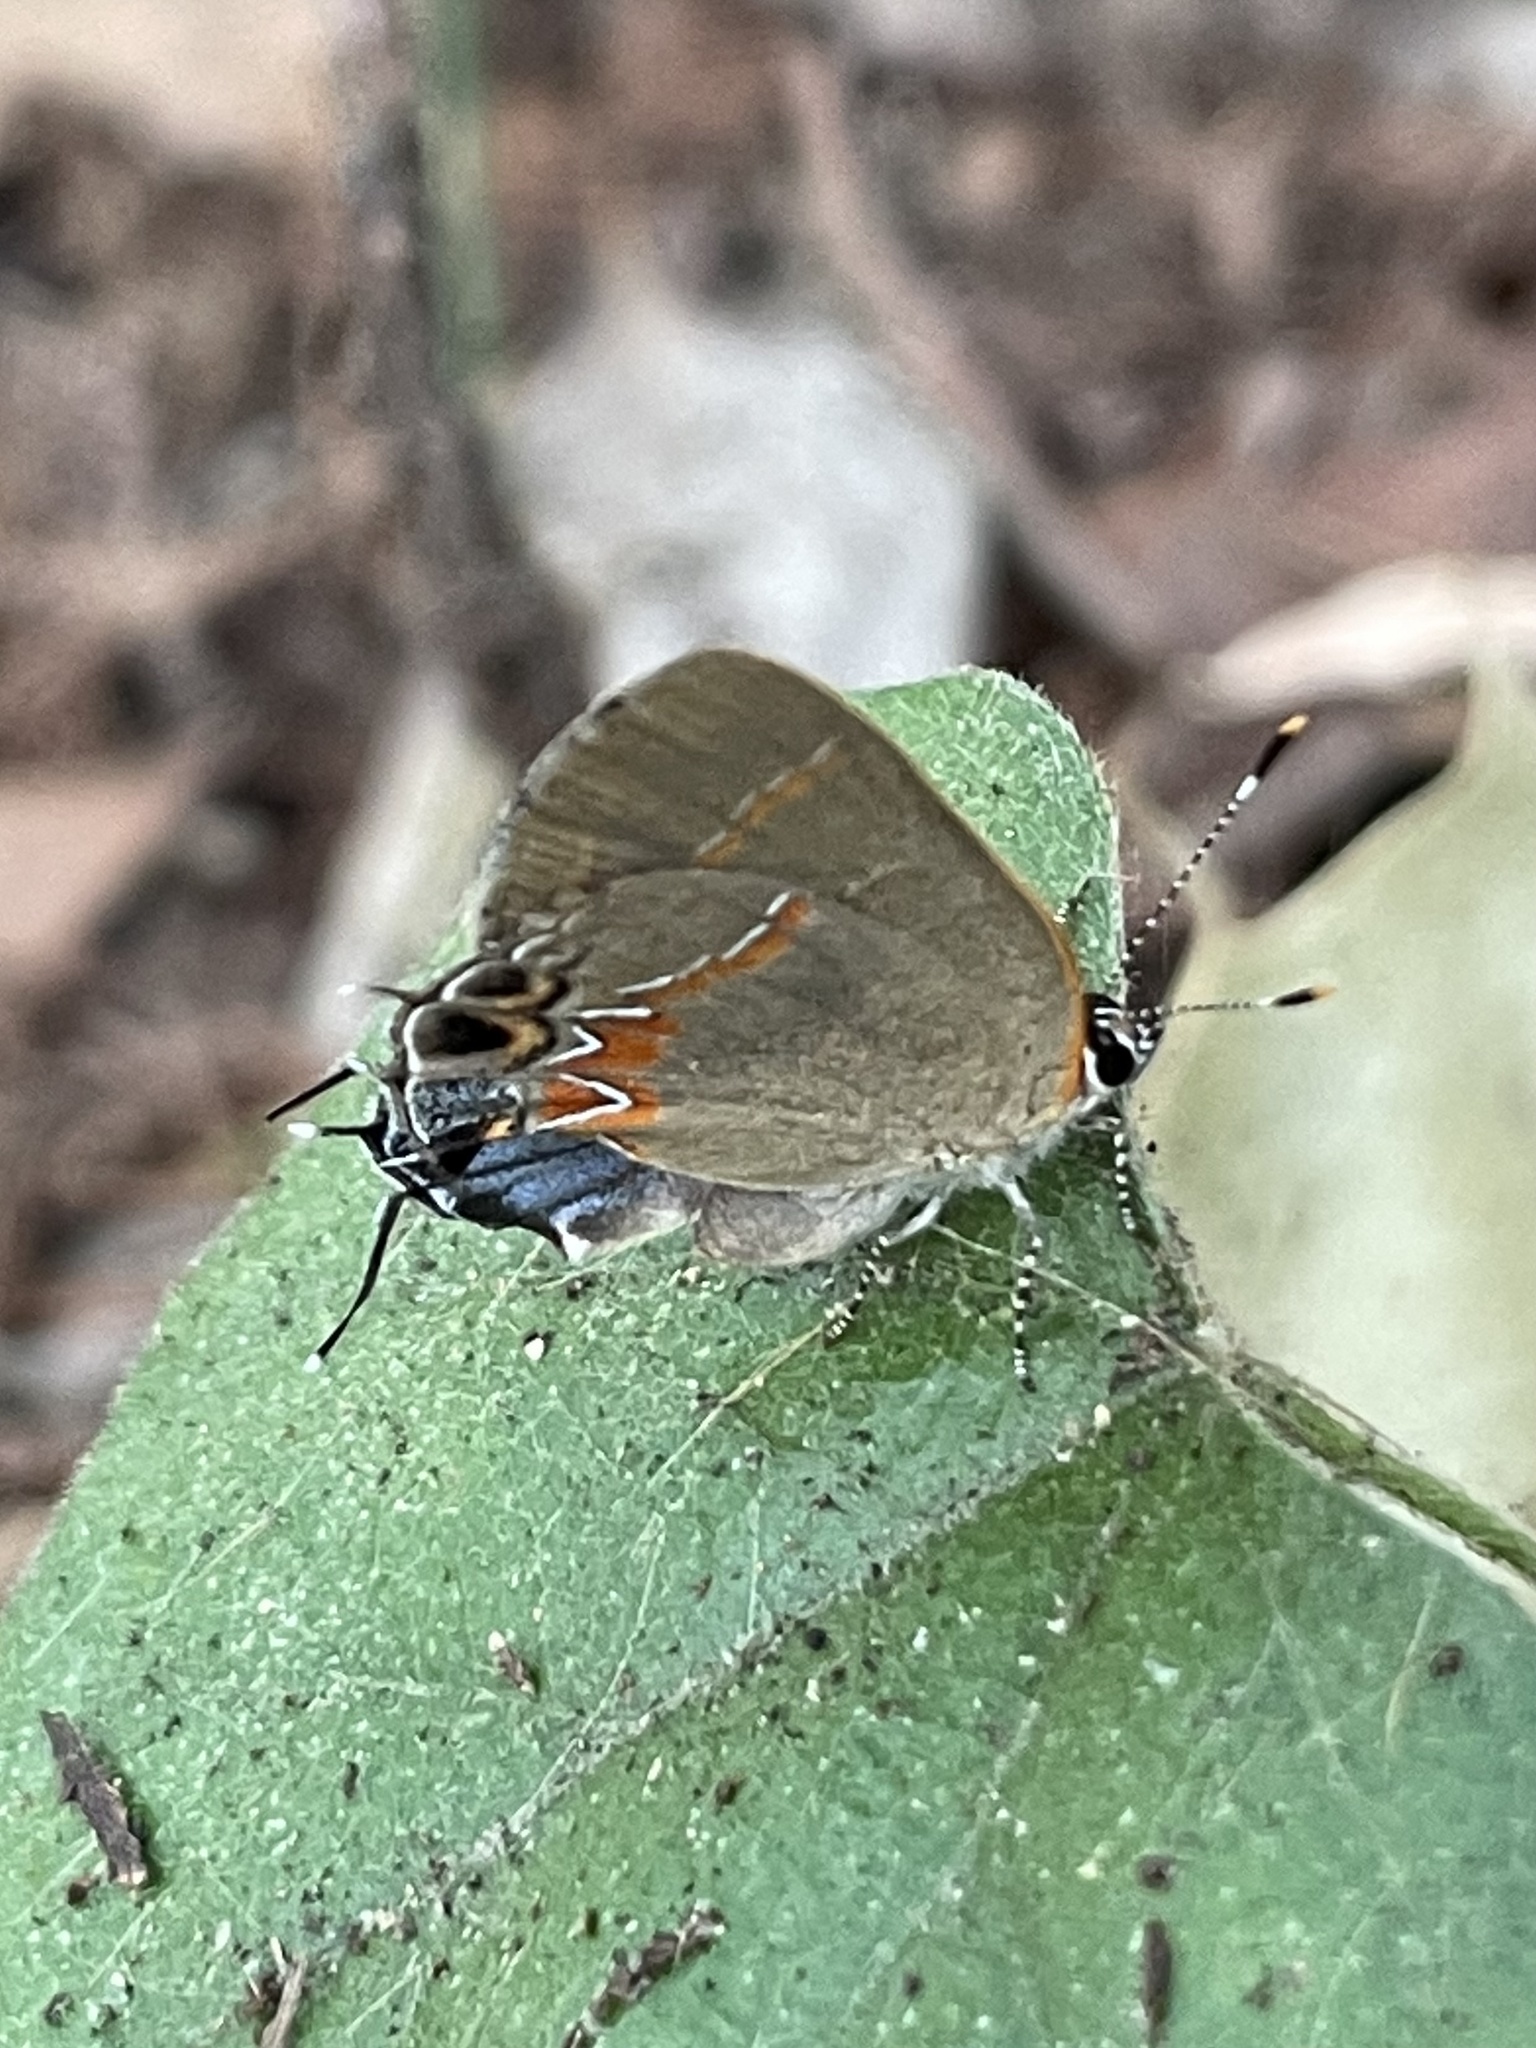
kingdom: Animalia
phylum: Arthropoda
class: Insecta
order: Lepidoptera
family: Lycaenidae
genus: Calycopis
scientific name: Calycopis isobeon
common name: Dusky-blue groundstreak
